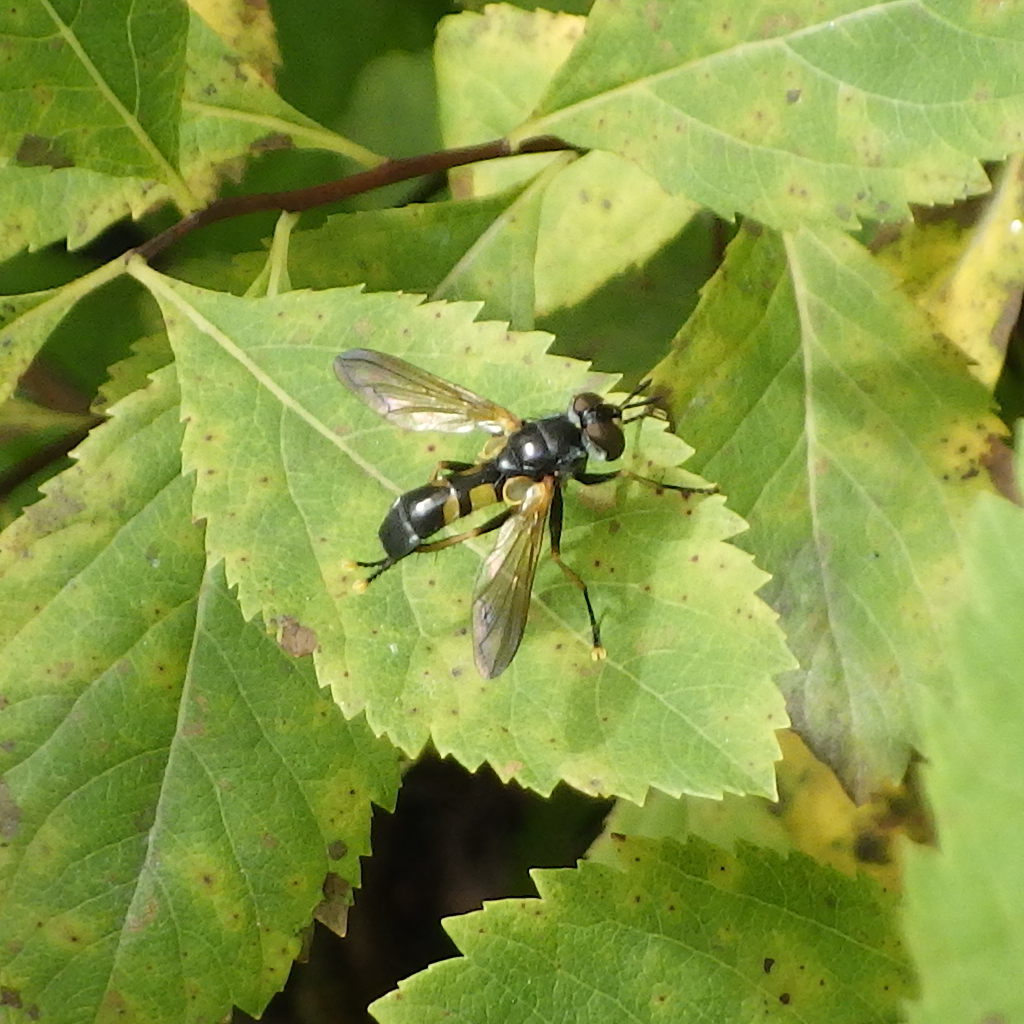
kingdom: Animalia
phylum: Arthropoda
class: Insecta
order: Diptera
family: Tachinidae
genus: Hemyda
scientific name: Hemyda aurata
